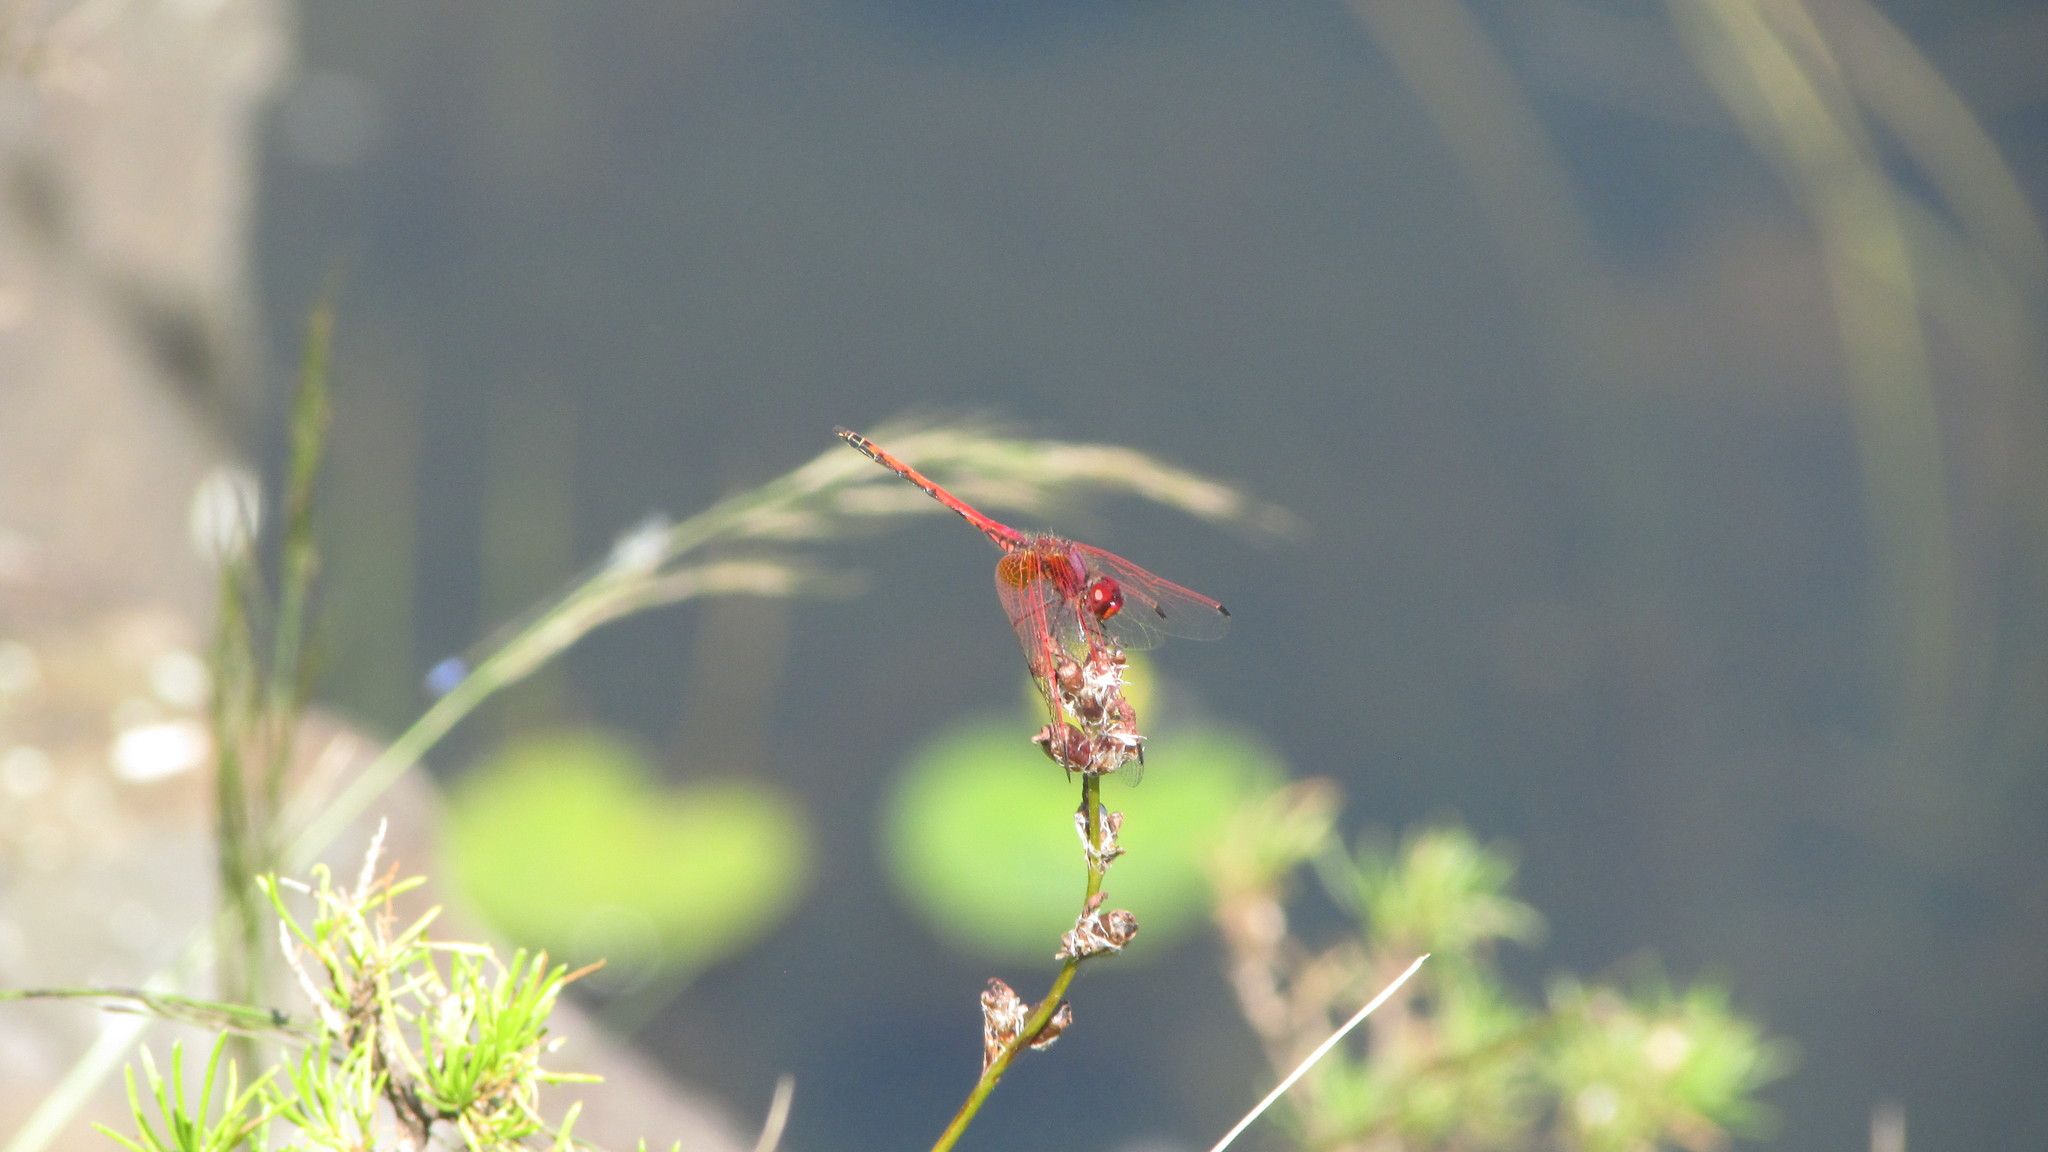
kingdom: Animalia
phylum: Arthropoda
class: Insecta
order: Odonata
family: Libellulidae
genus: Trithemis
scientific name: Trithemis arteriosa
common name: Red-veined dropwing
